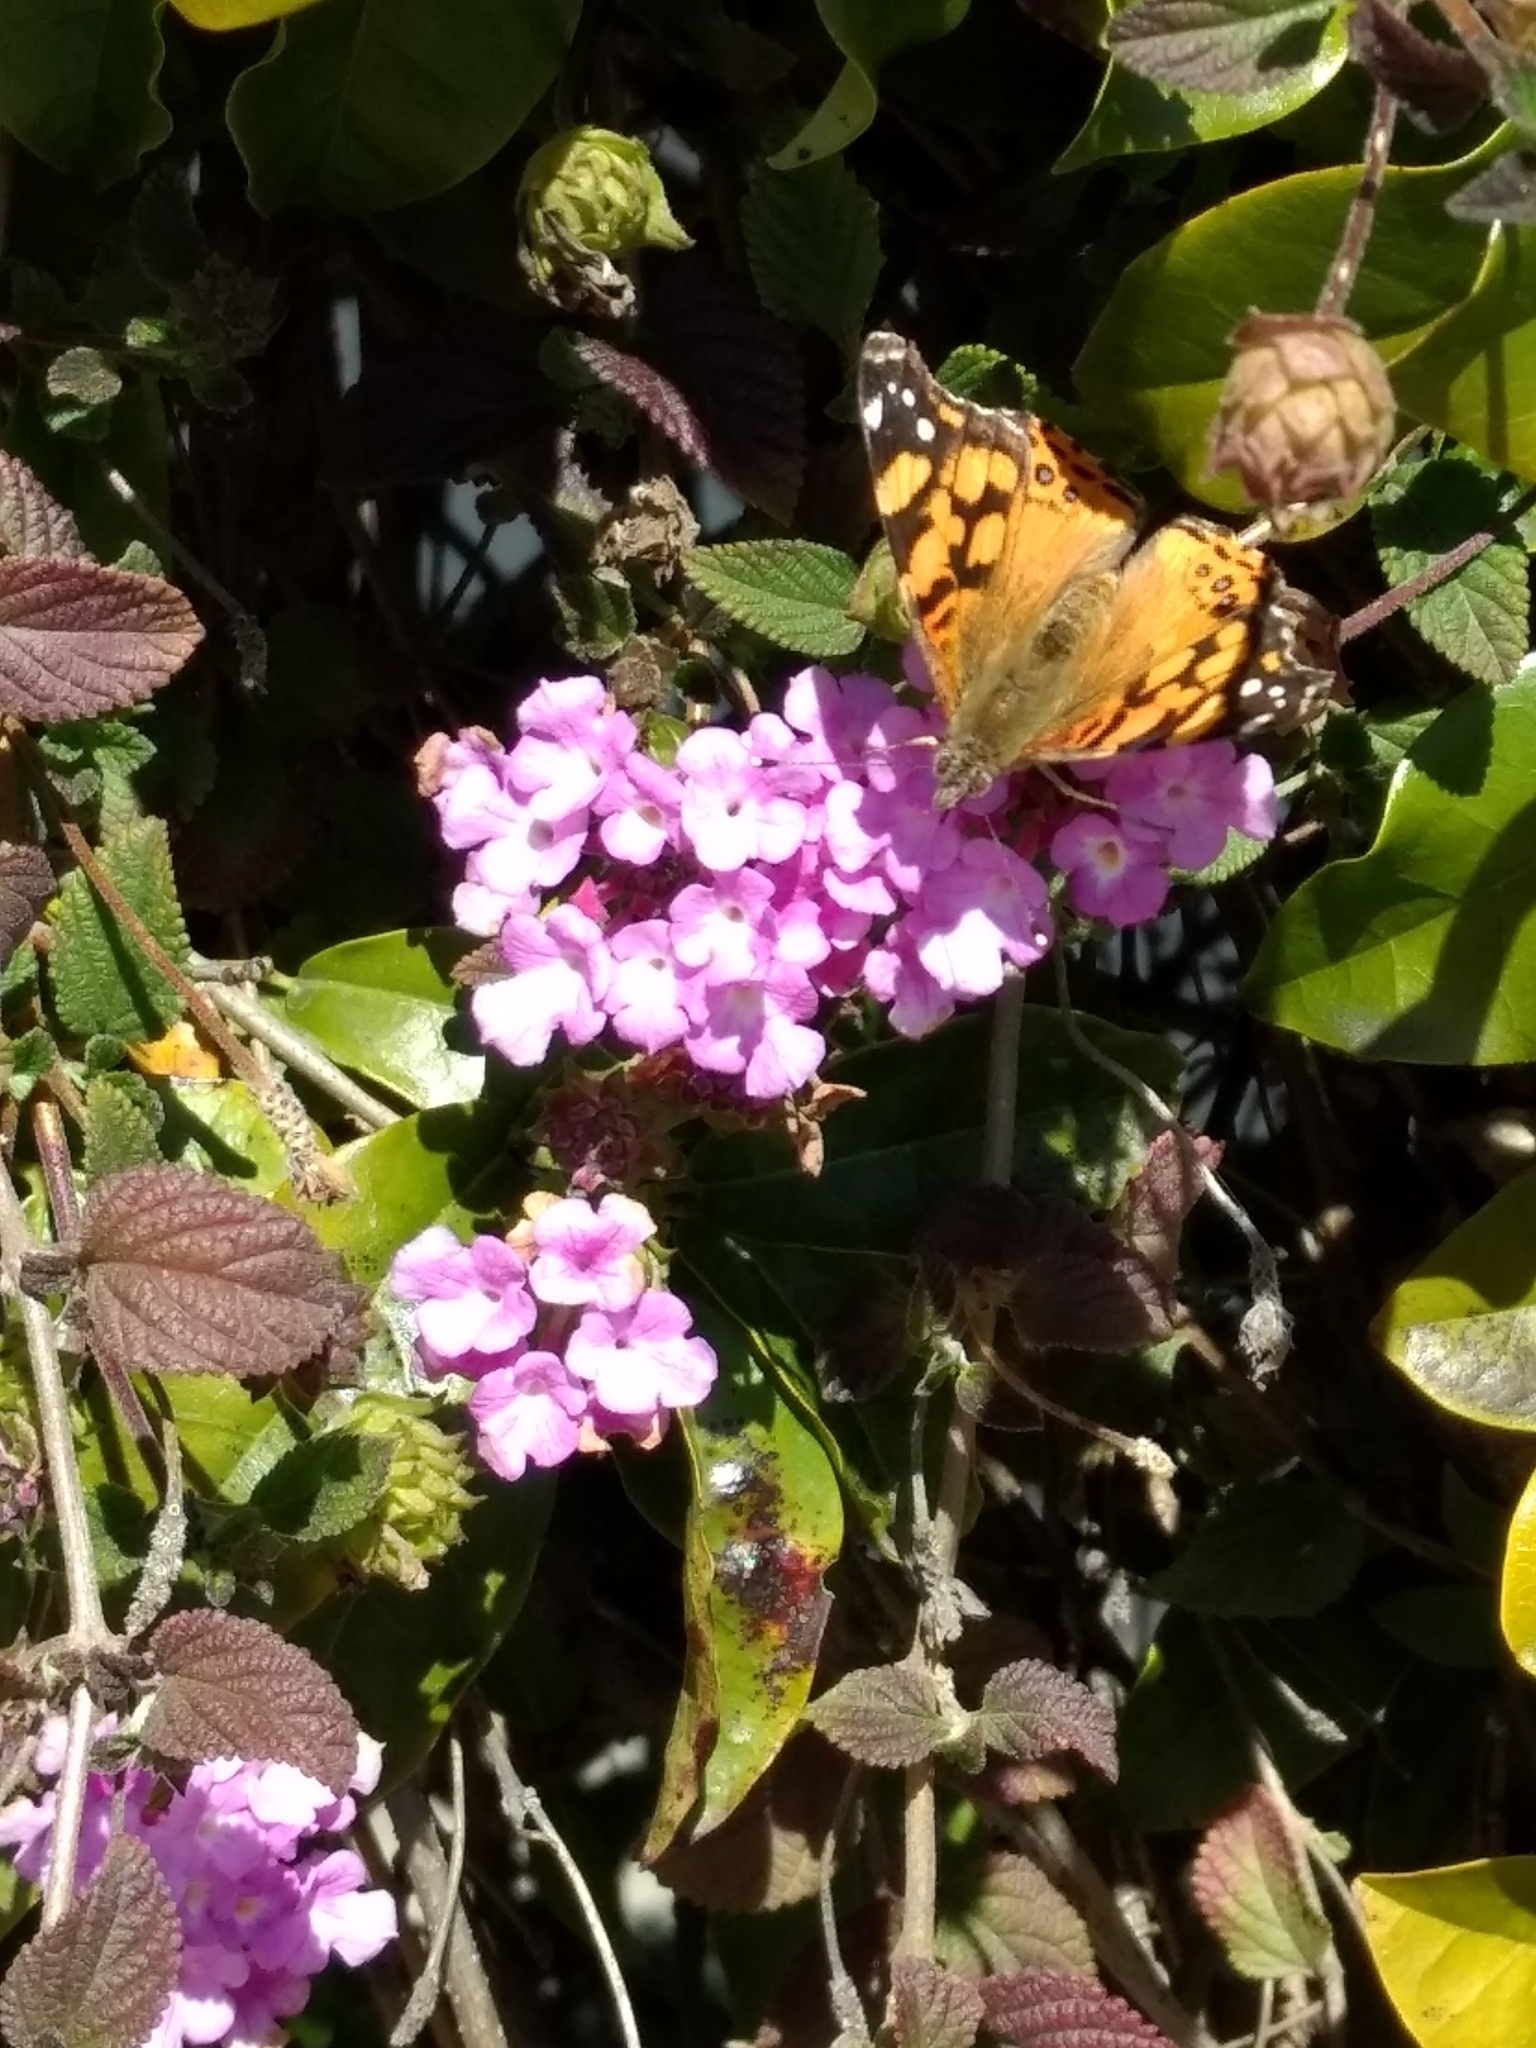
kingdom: Animalia
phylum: Arthropoda
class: Insecta
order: Lepidoptera
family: Nymphalidae
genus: Vanessa
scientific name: Vanessa annabella
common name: West coast lady
